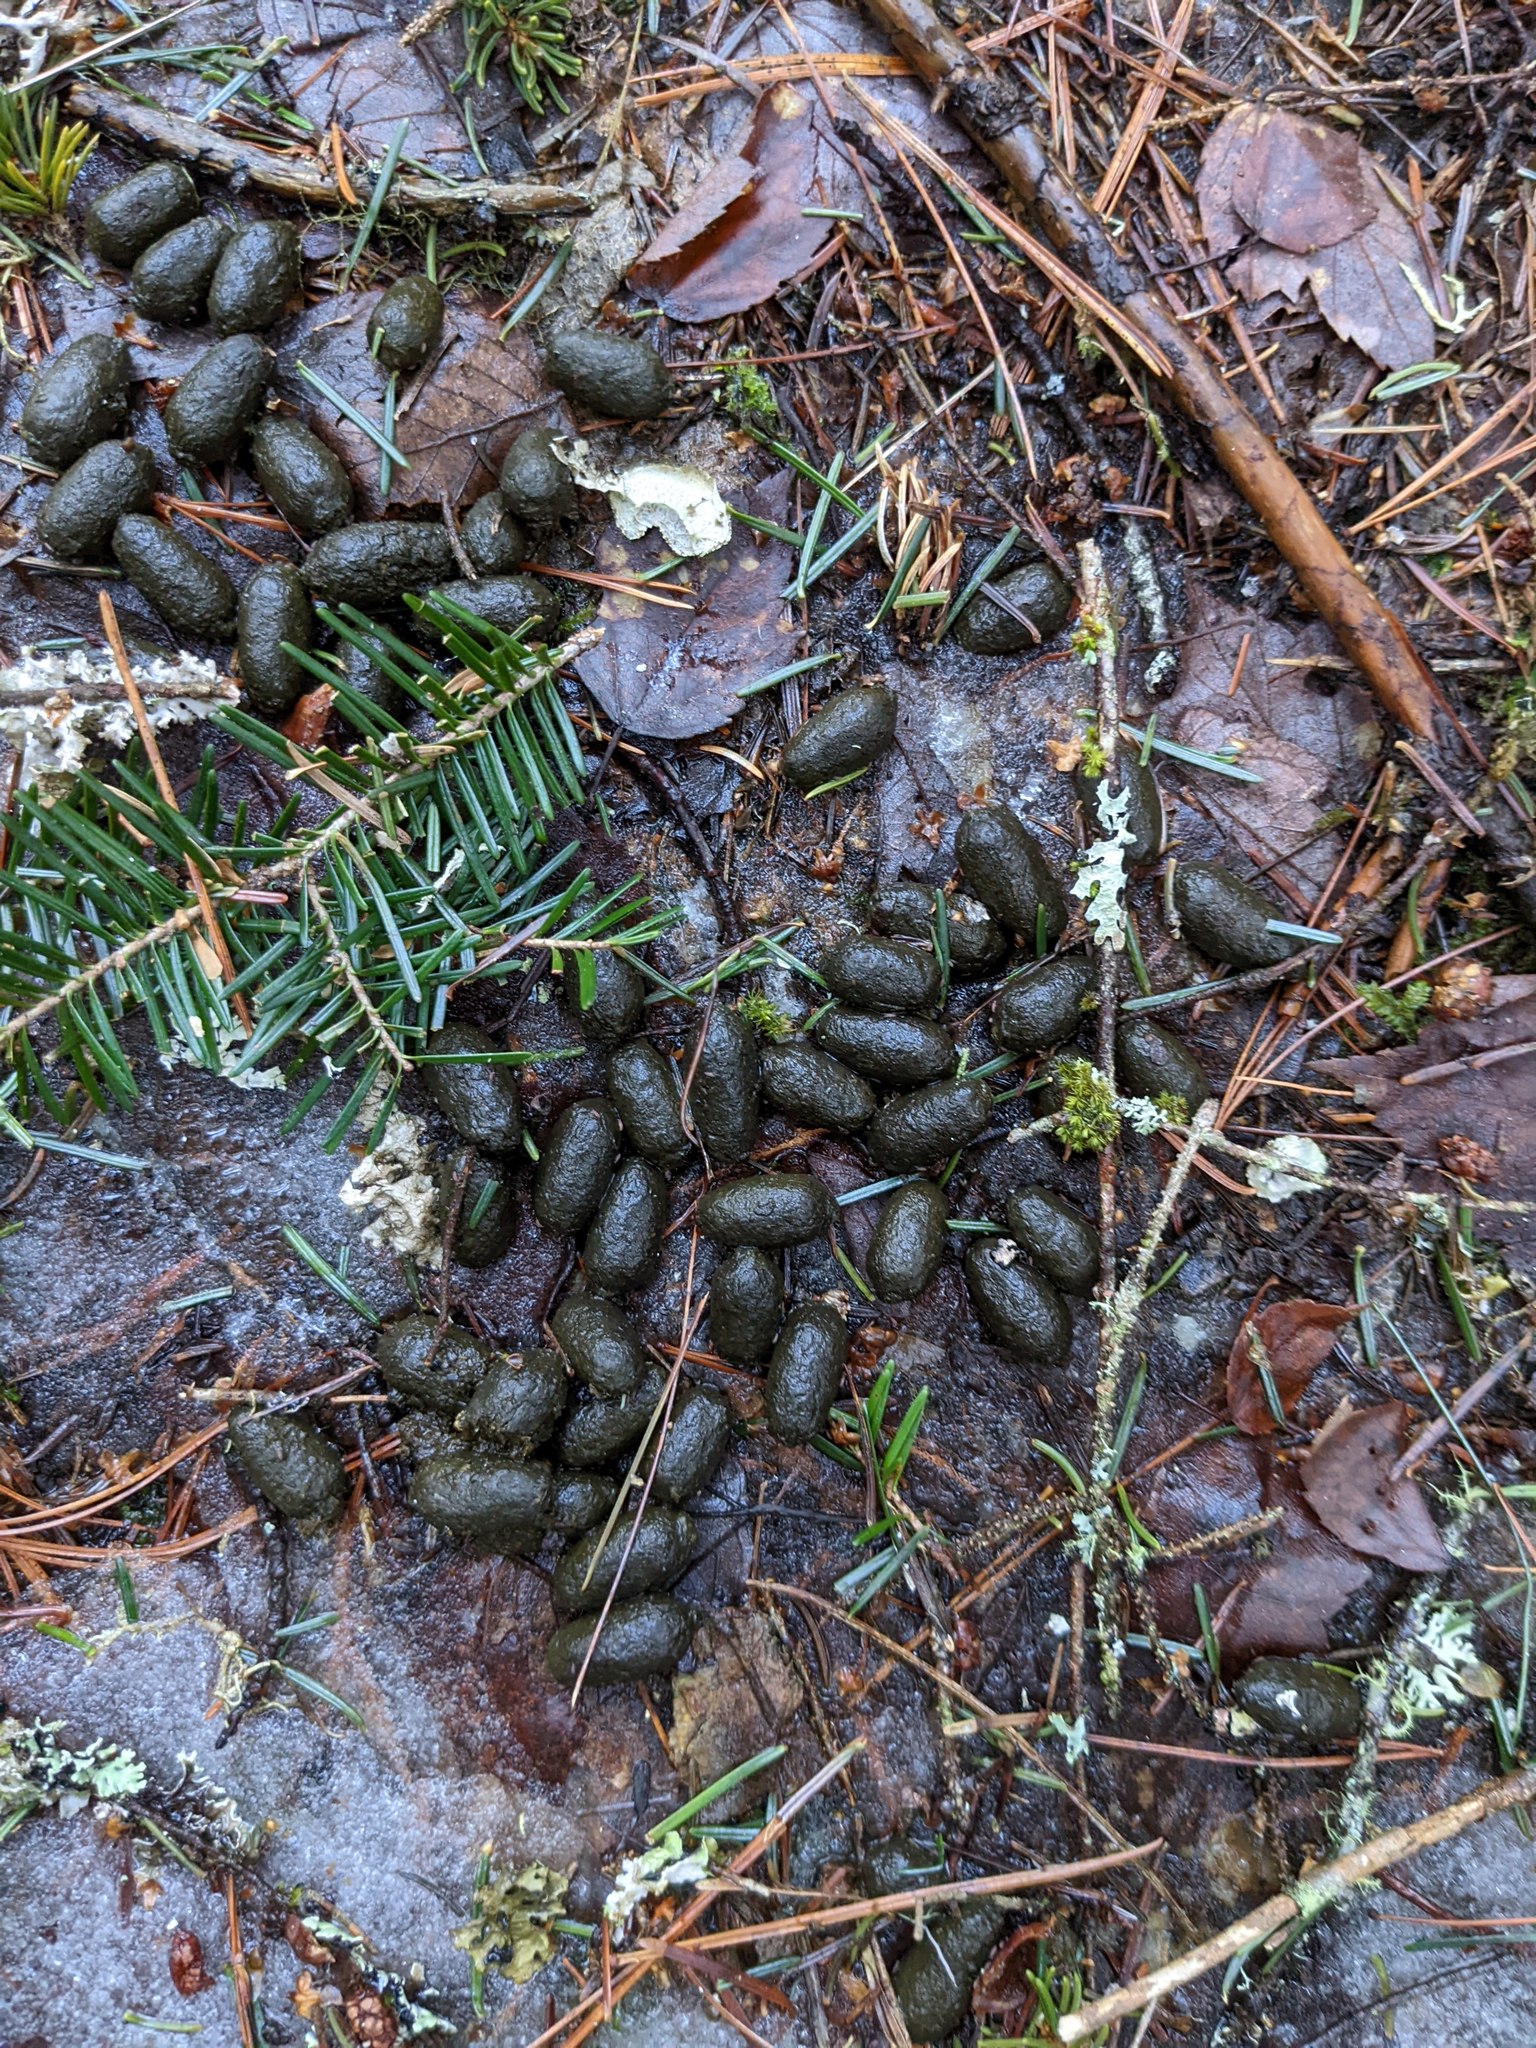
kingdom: Animalia
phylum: Chordata
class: Mammalia
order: Artiodactyla
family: Cervidae
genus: Odocoileus
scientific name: Odocoileus virginianus
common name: White-tailed deer
